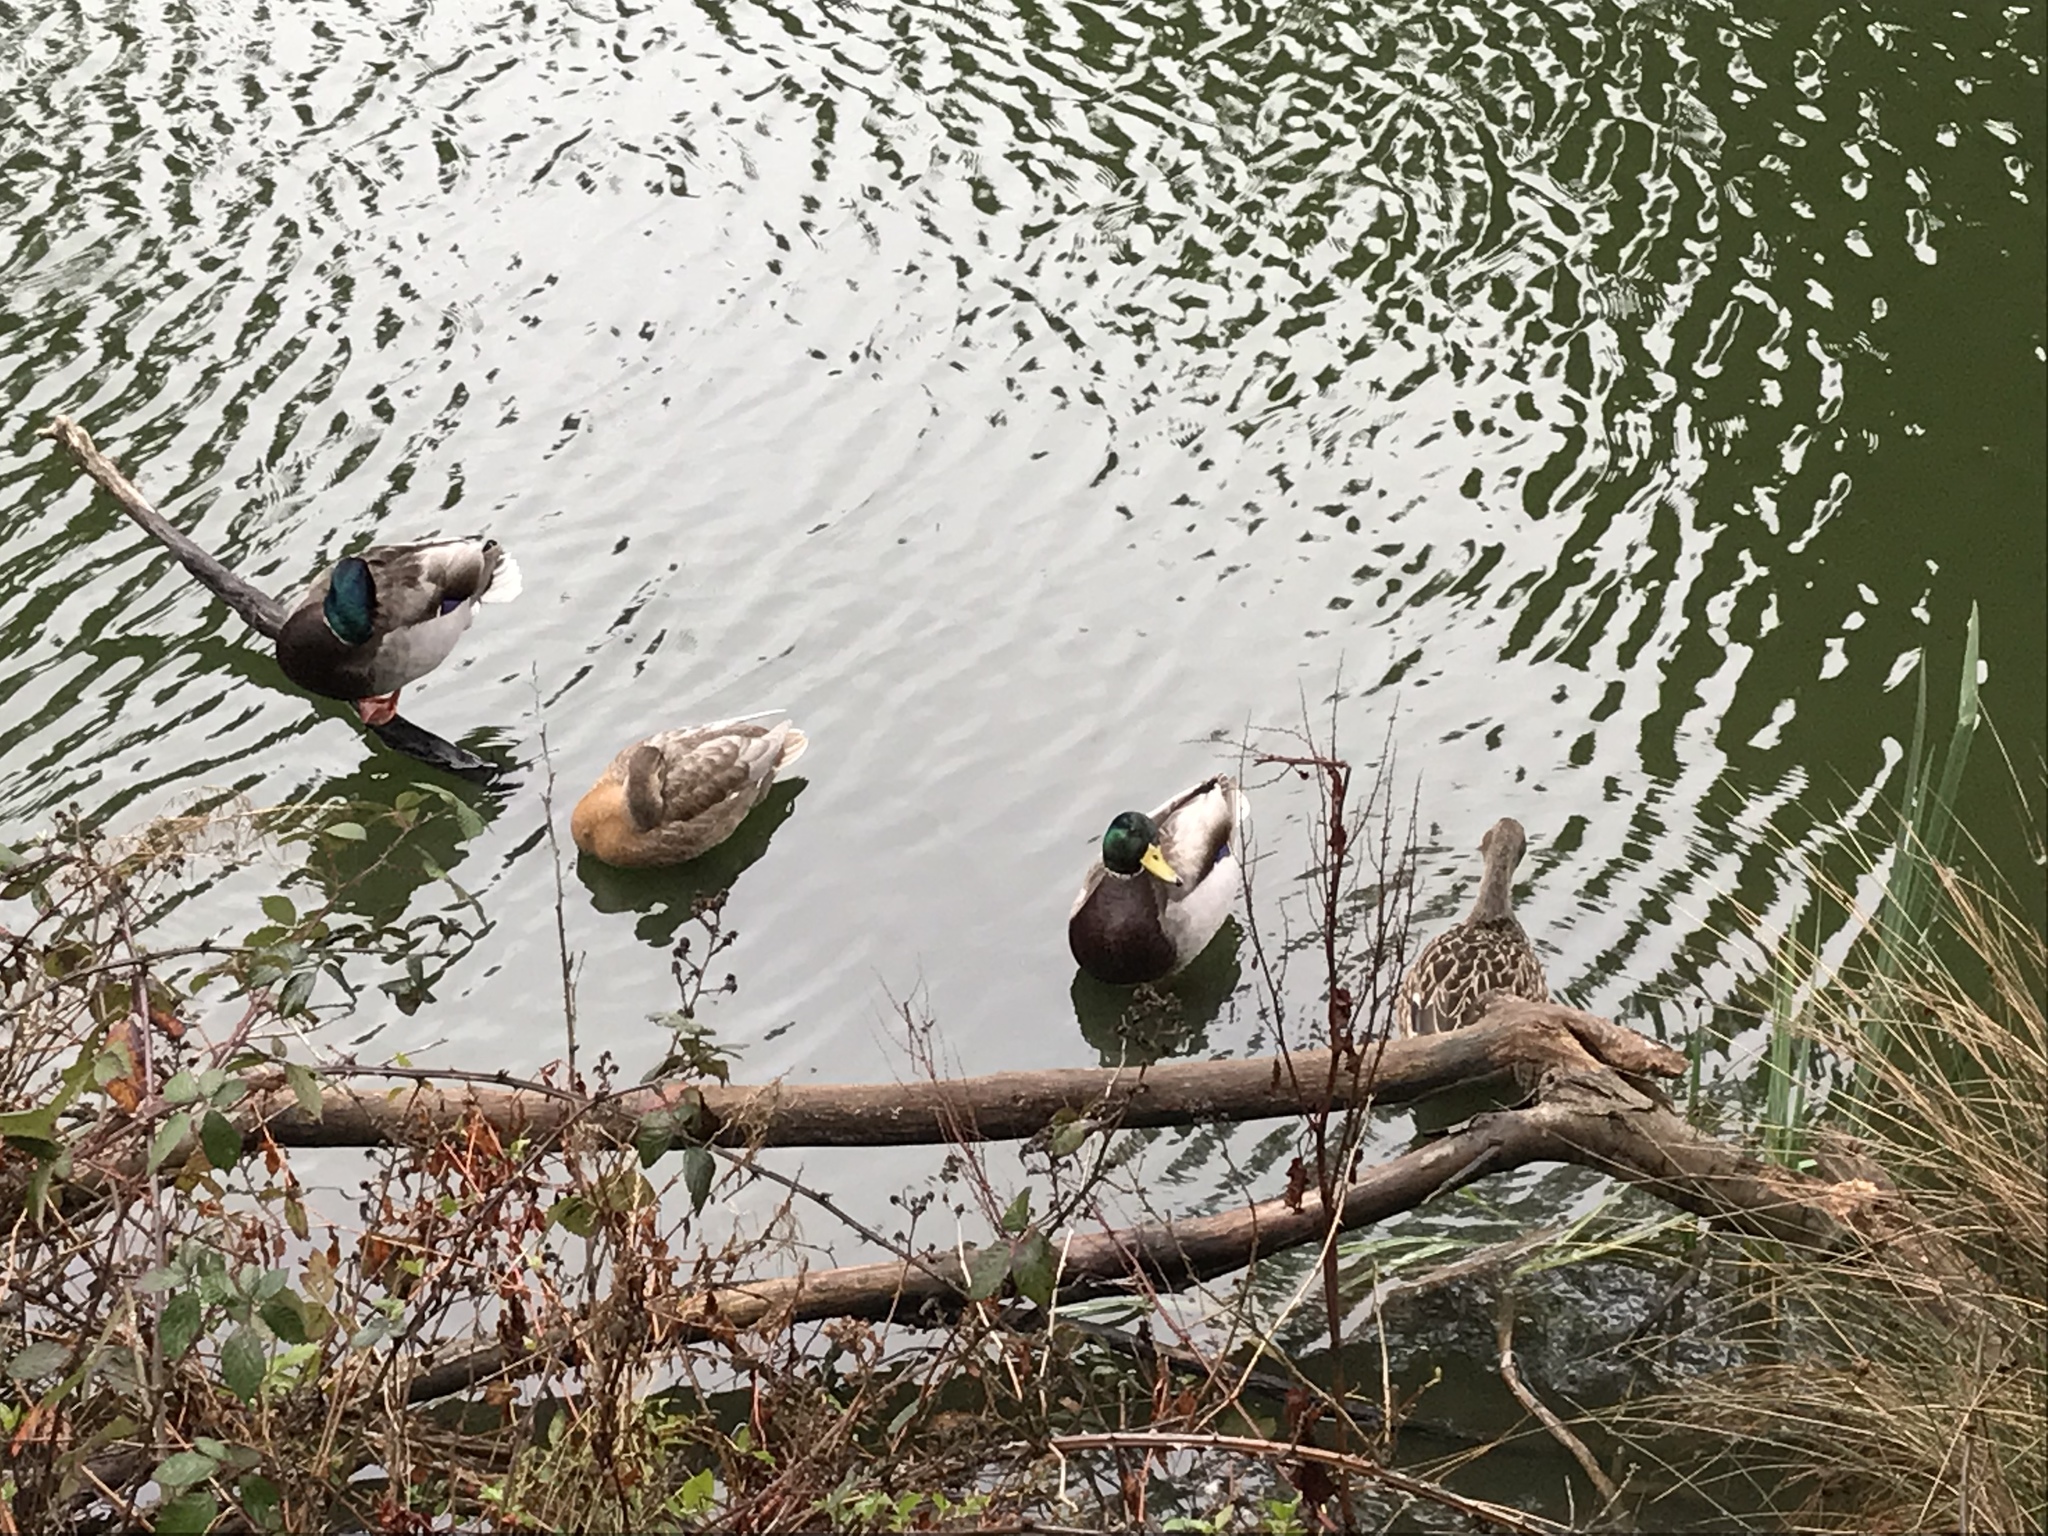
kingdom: Animalia
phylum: Chordata
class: Aves
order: Anseriformes
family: Anatidae
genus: Anas
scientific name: Anas platyrhynchos
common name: Mallard
